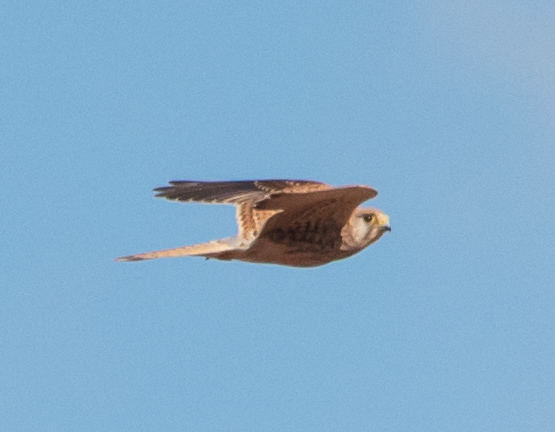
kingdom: Animalia
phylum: Chordata
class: Aves
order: Falconiformes
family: Falconidae
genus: Falco
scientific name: Falco tinnunculus
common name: Common kestrel
